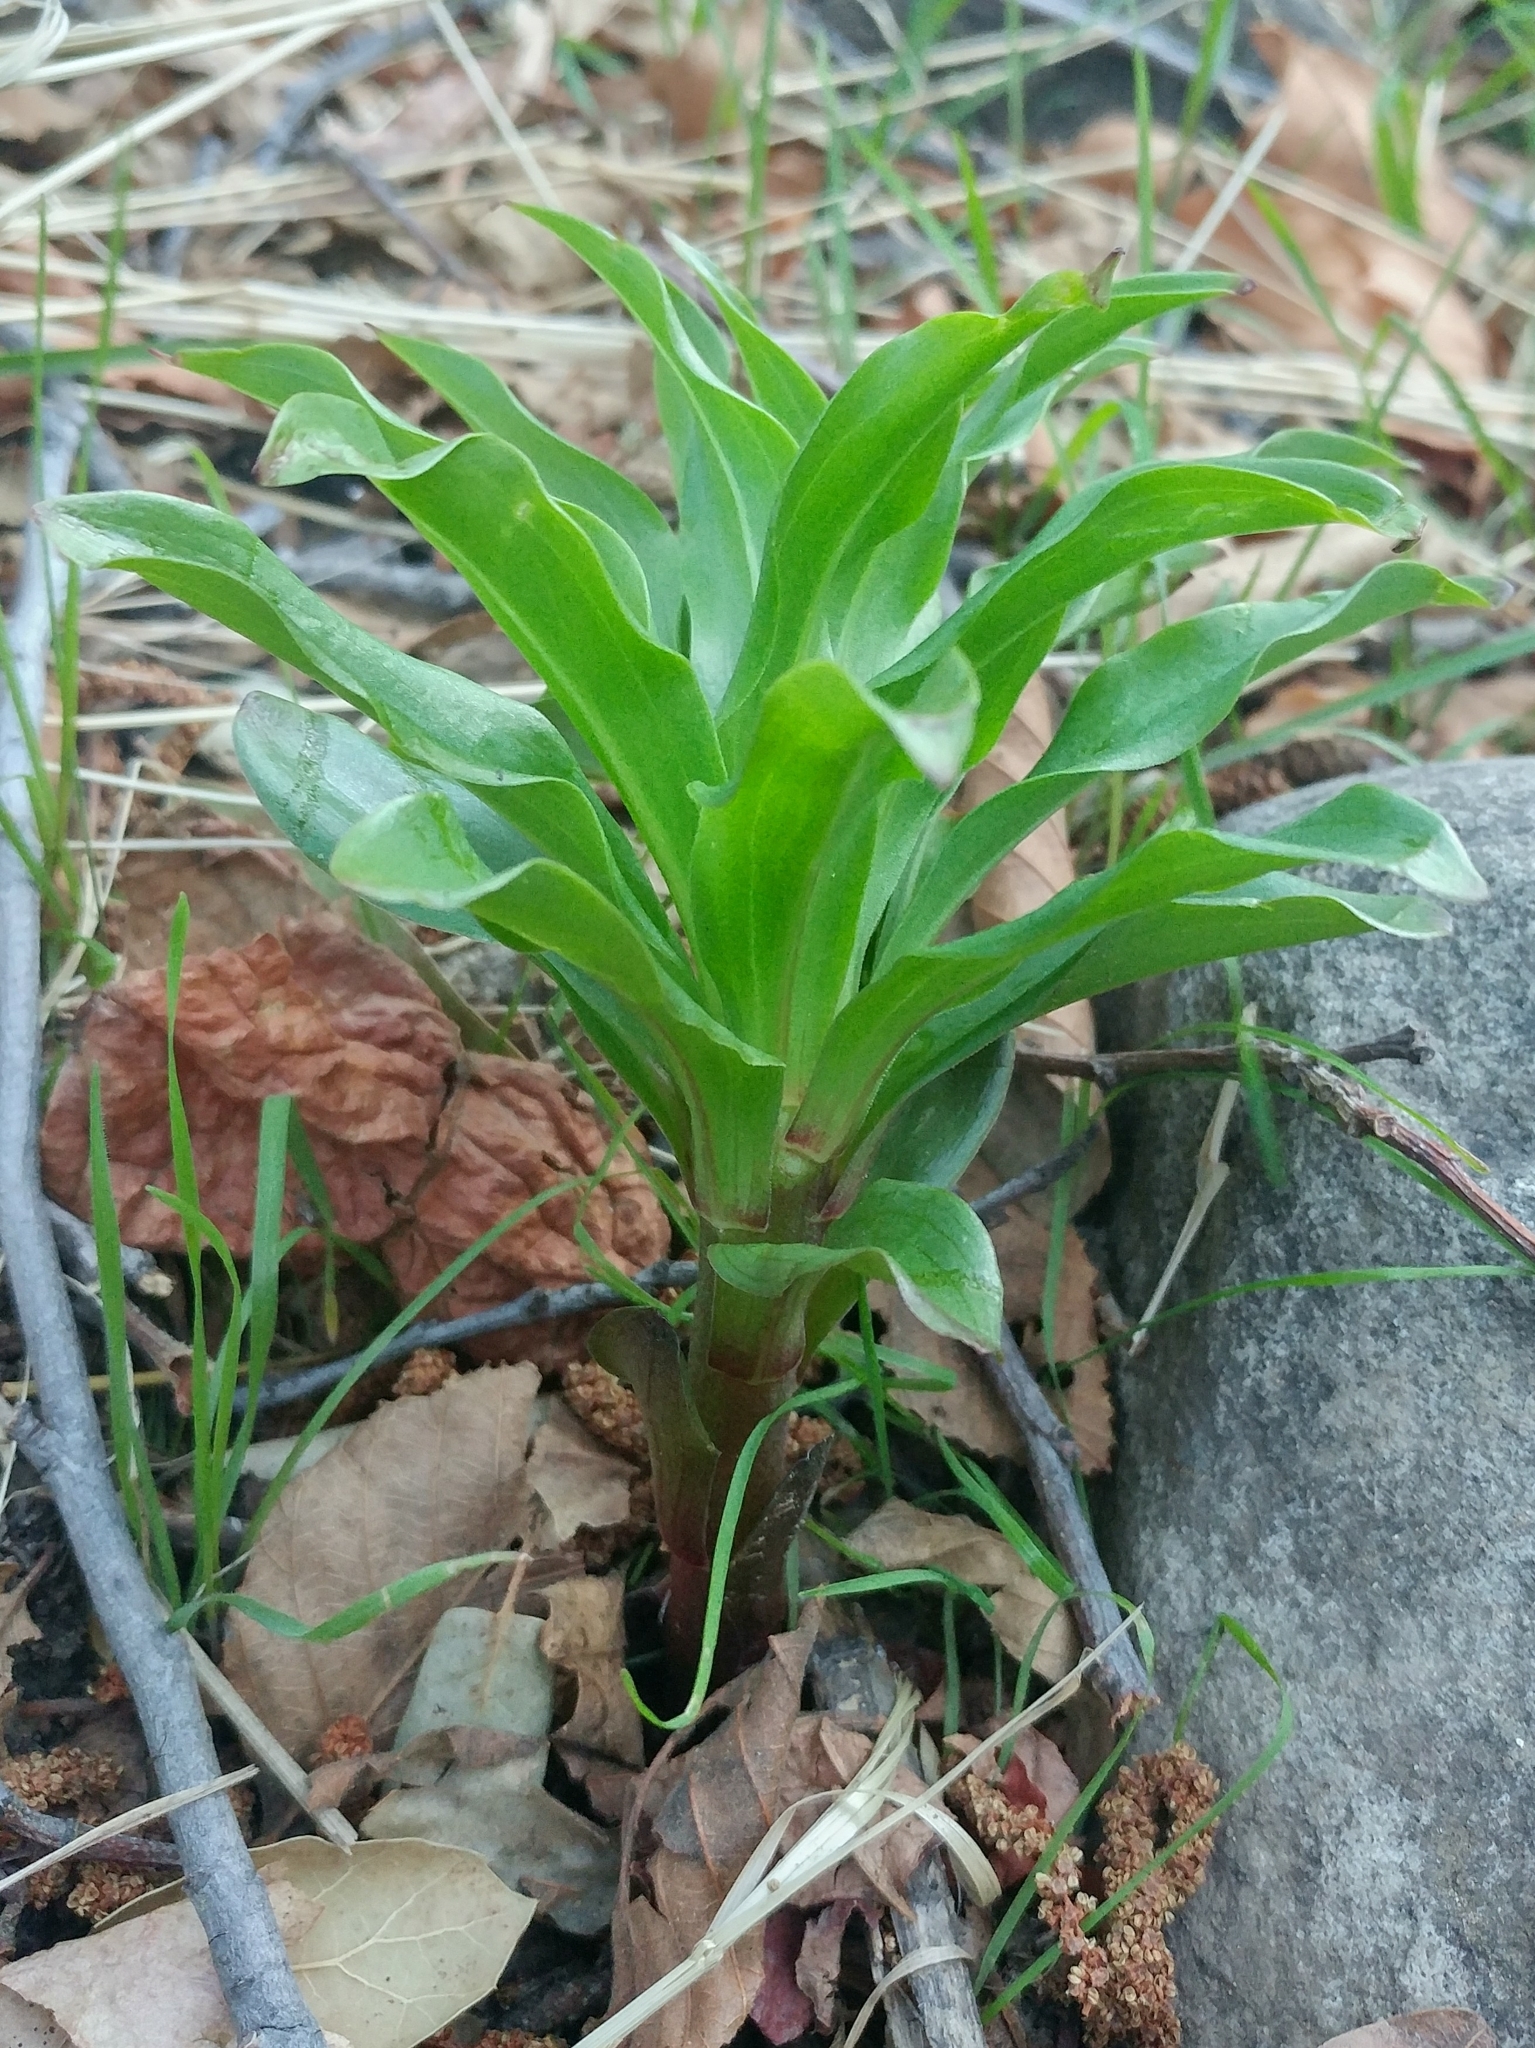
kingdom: Plantae
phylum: Tracheophyta
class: Liliopsida
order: Liliales
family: Liliaceae
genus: Lilium
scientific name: Lilium humboldtii
